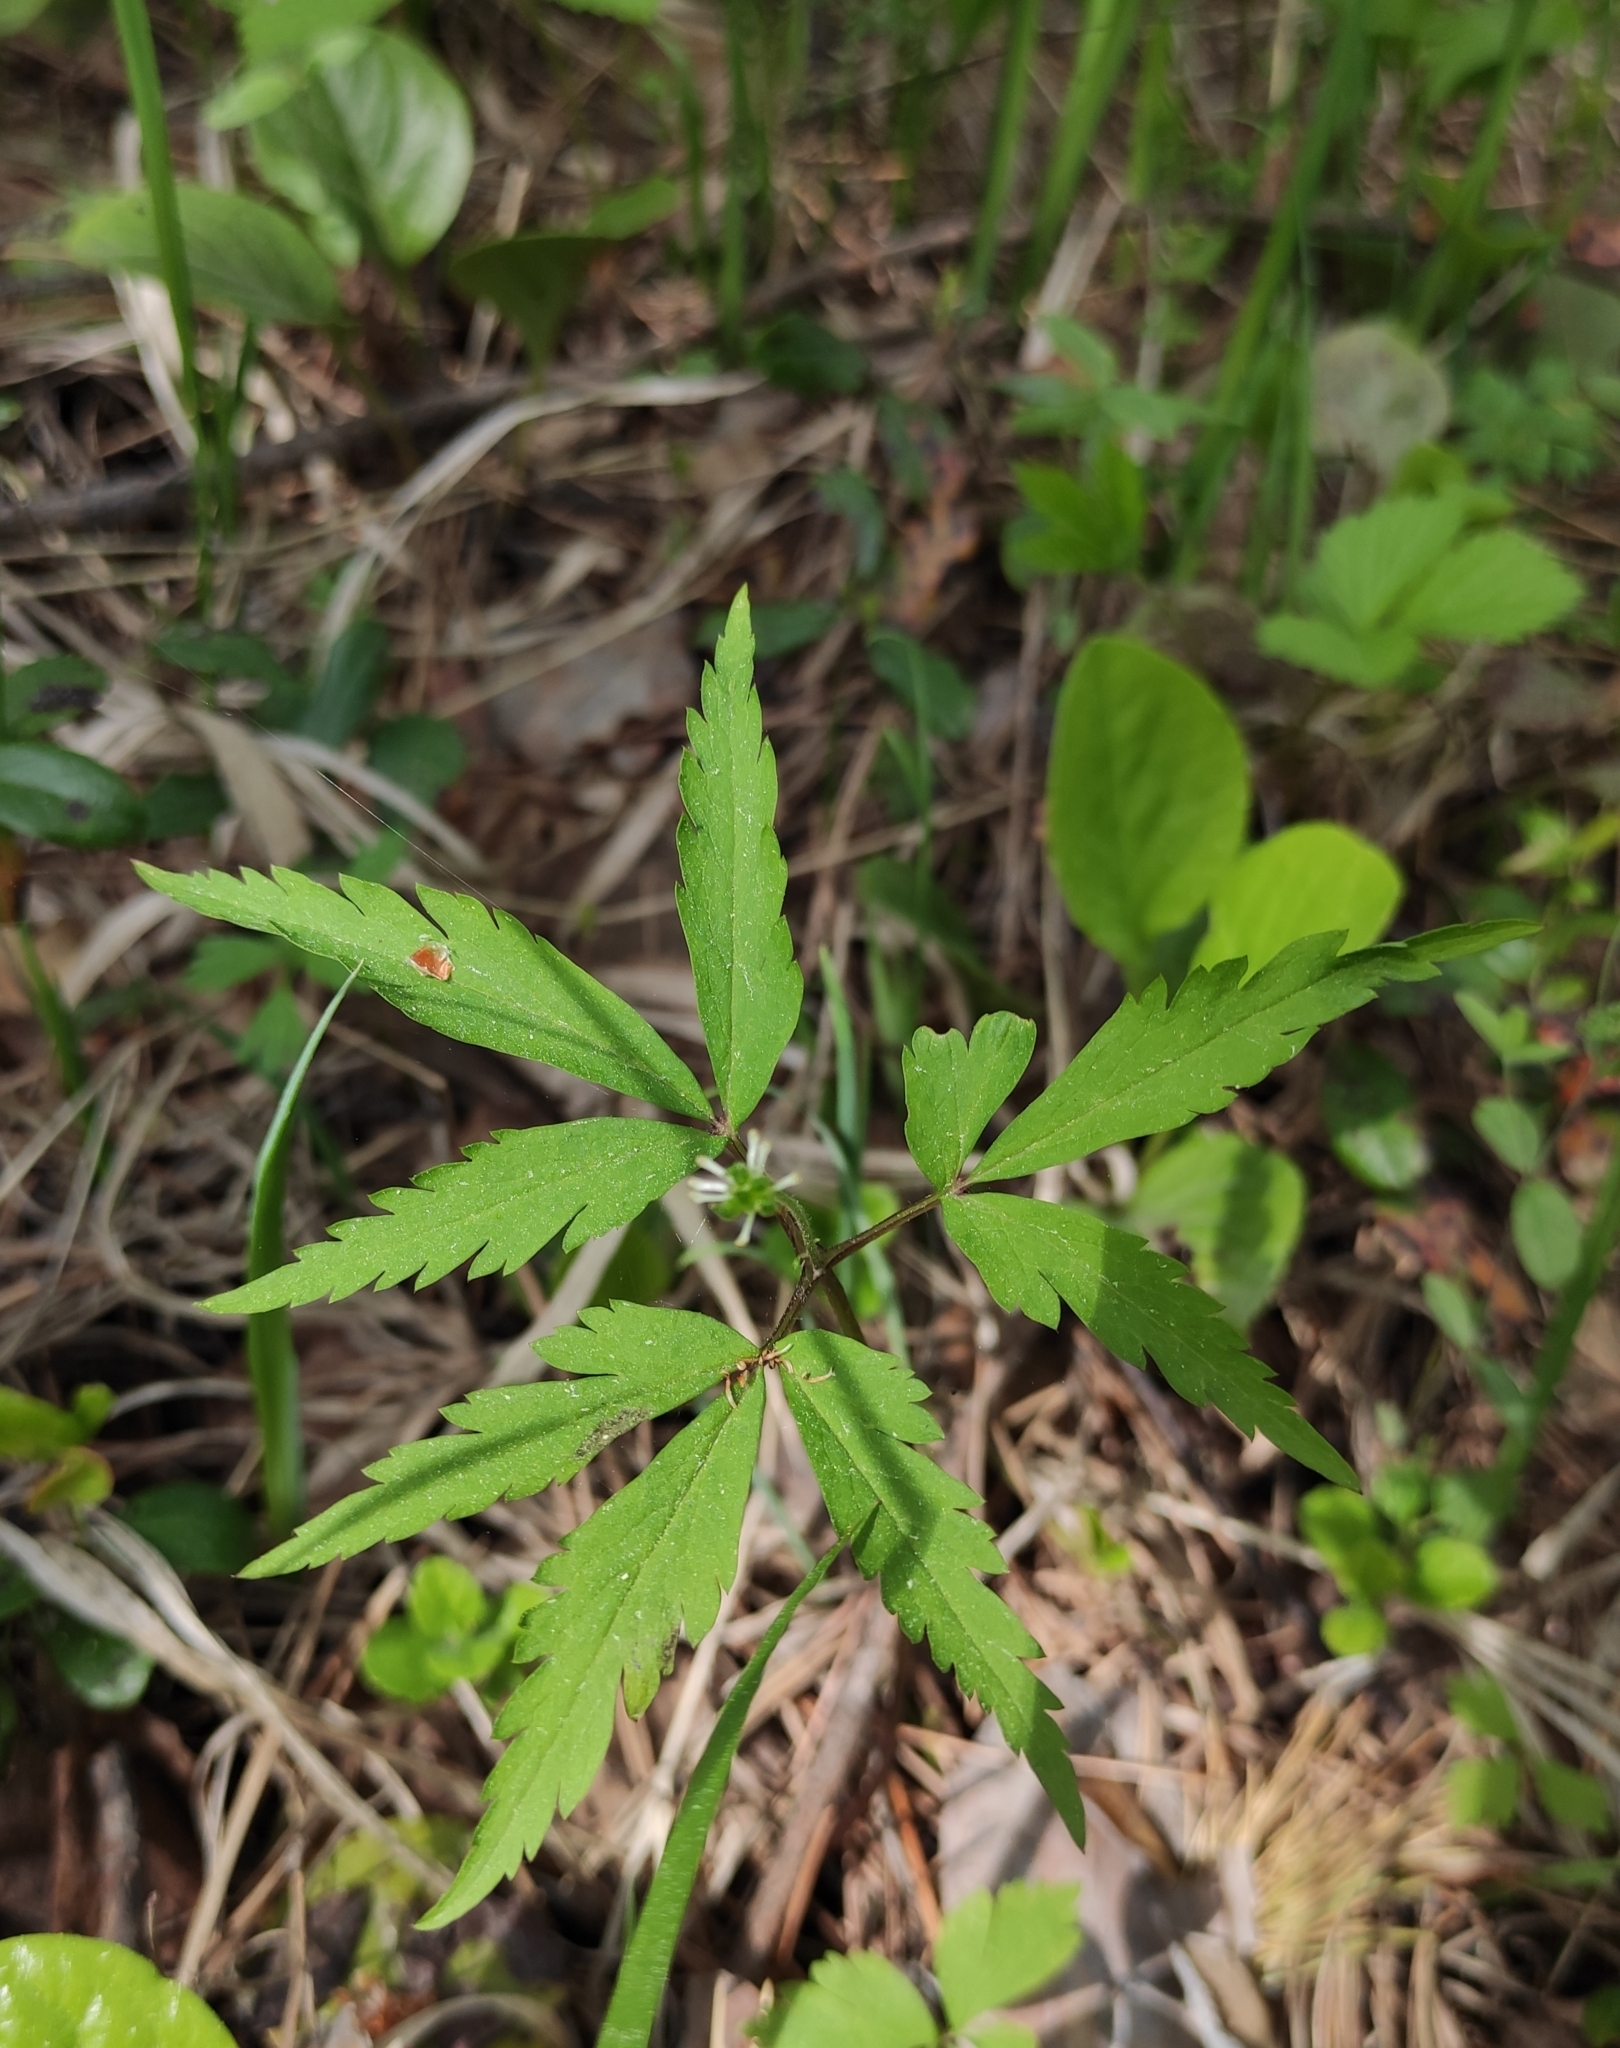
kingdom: Plantae
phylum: Tracheophyta
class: Magnoliopsida
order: Ranunculales
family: Ranunculaceae
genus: Anemone
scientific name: Anemone reflexa
